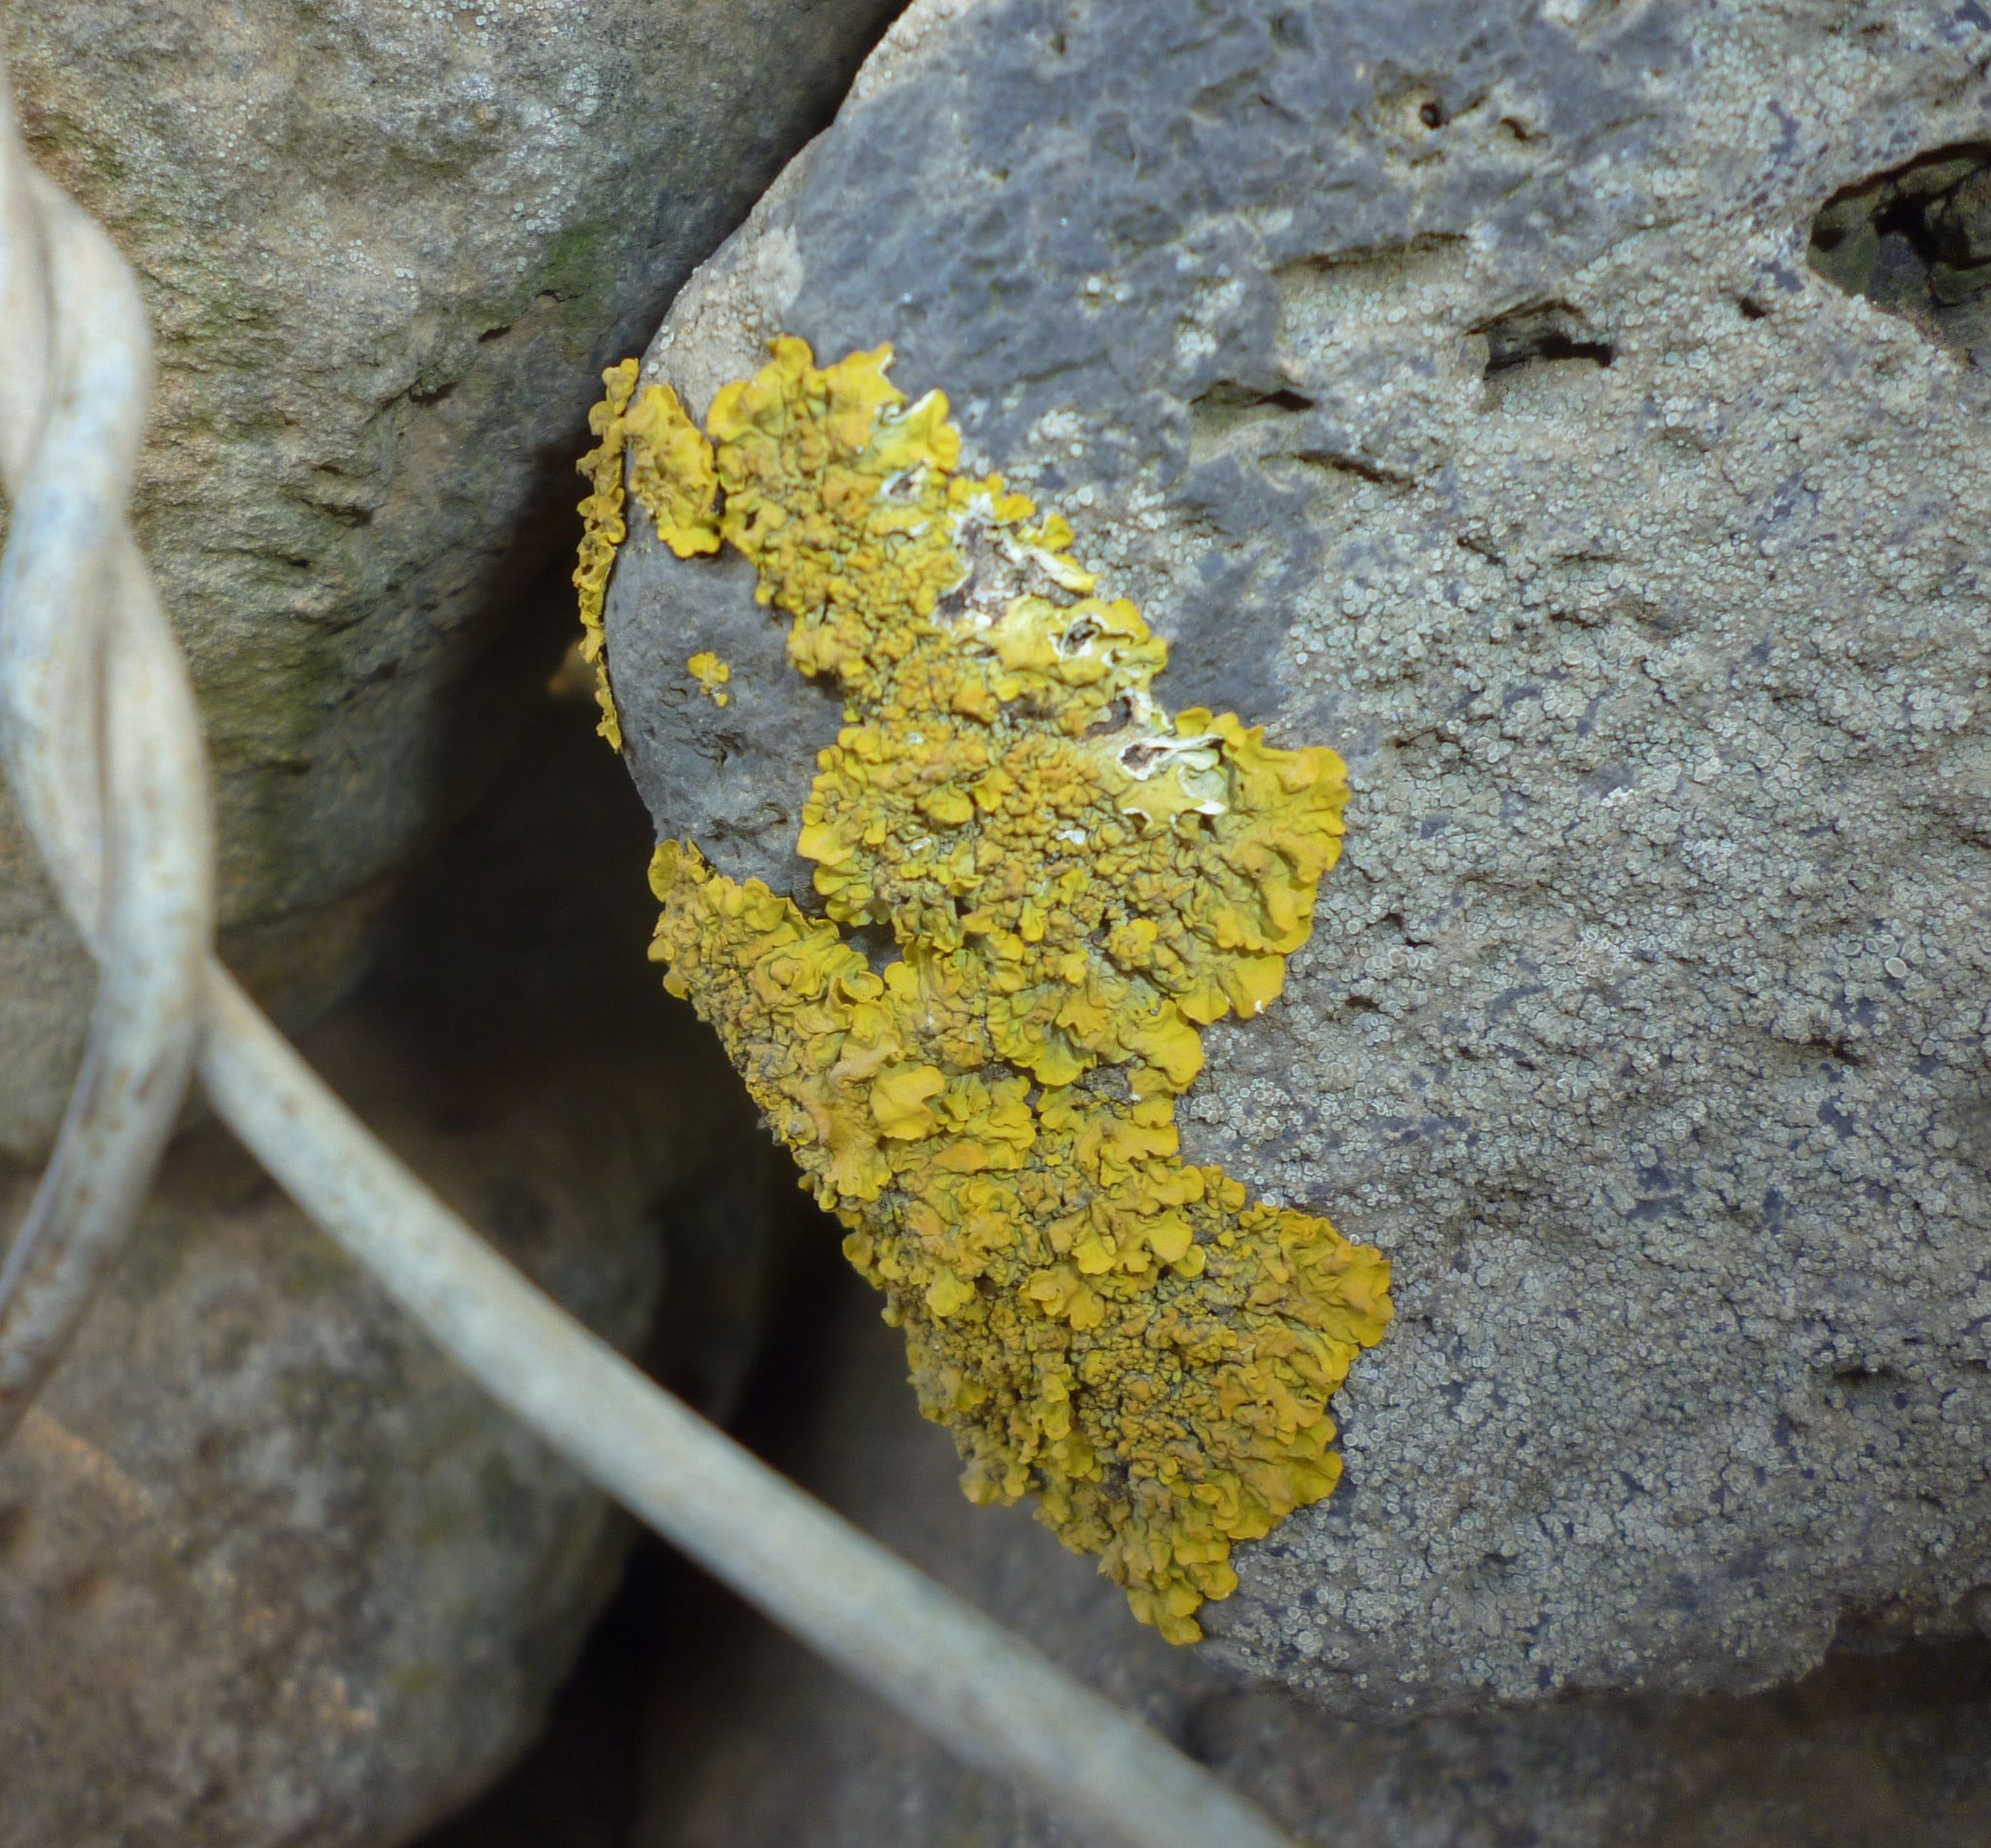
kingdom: Fungi
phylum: Ascomycota
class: Lecanoromycetes
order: Teloschistales
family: Teloschistaceae
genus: Xanthoria
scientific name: Xanthoria parietina
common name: Common orange lichen
